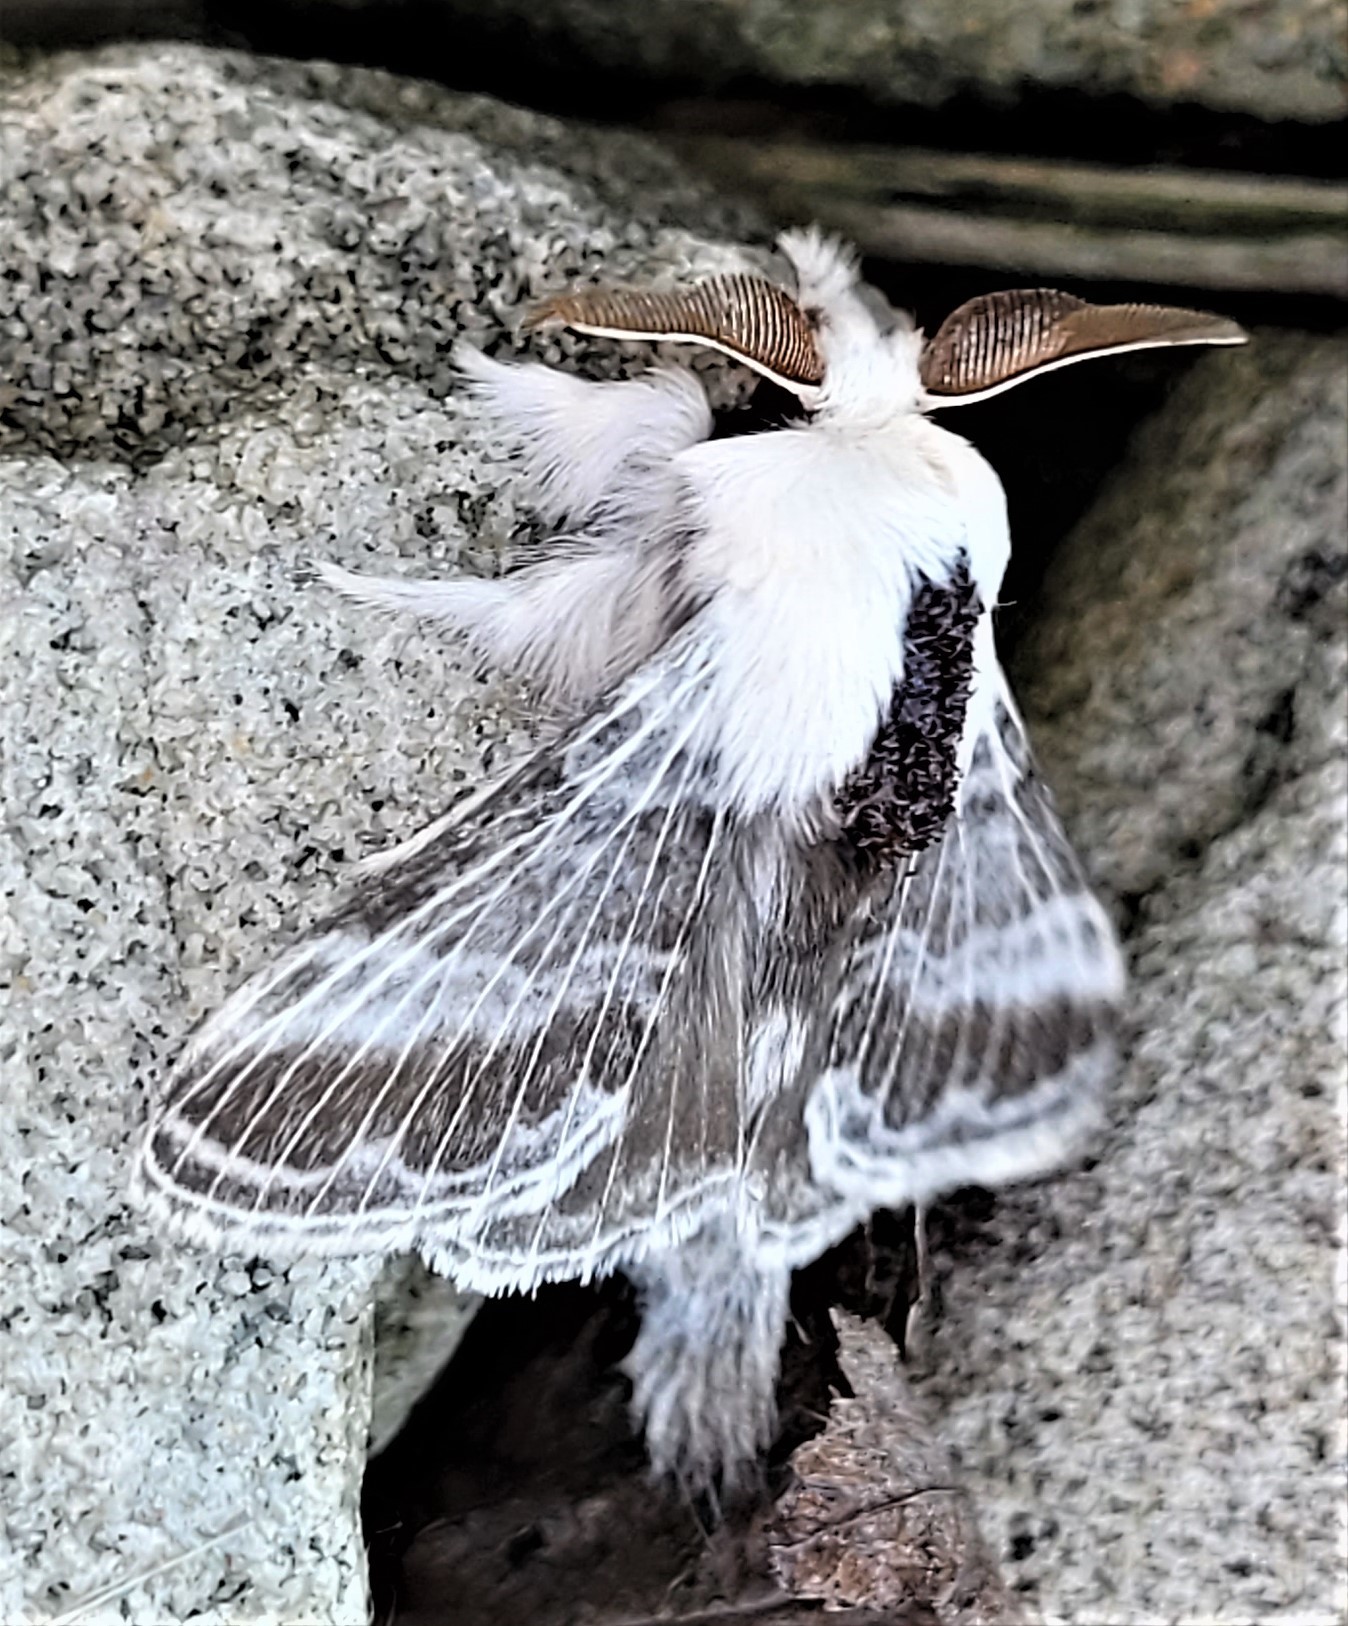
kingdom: Animalia
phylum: Arthropoda
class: Insecta
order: Lepidoptera
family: Lasiocampidae
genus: Tolype
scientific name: Tolype velleda
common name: Large tolype moth
